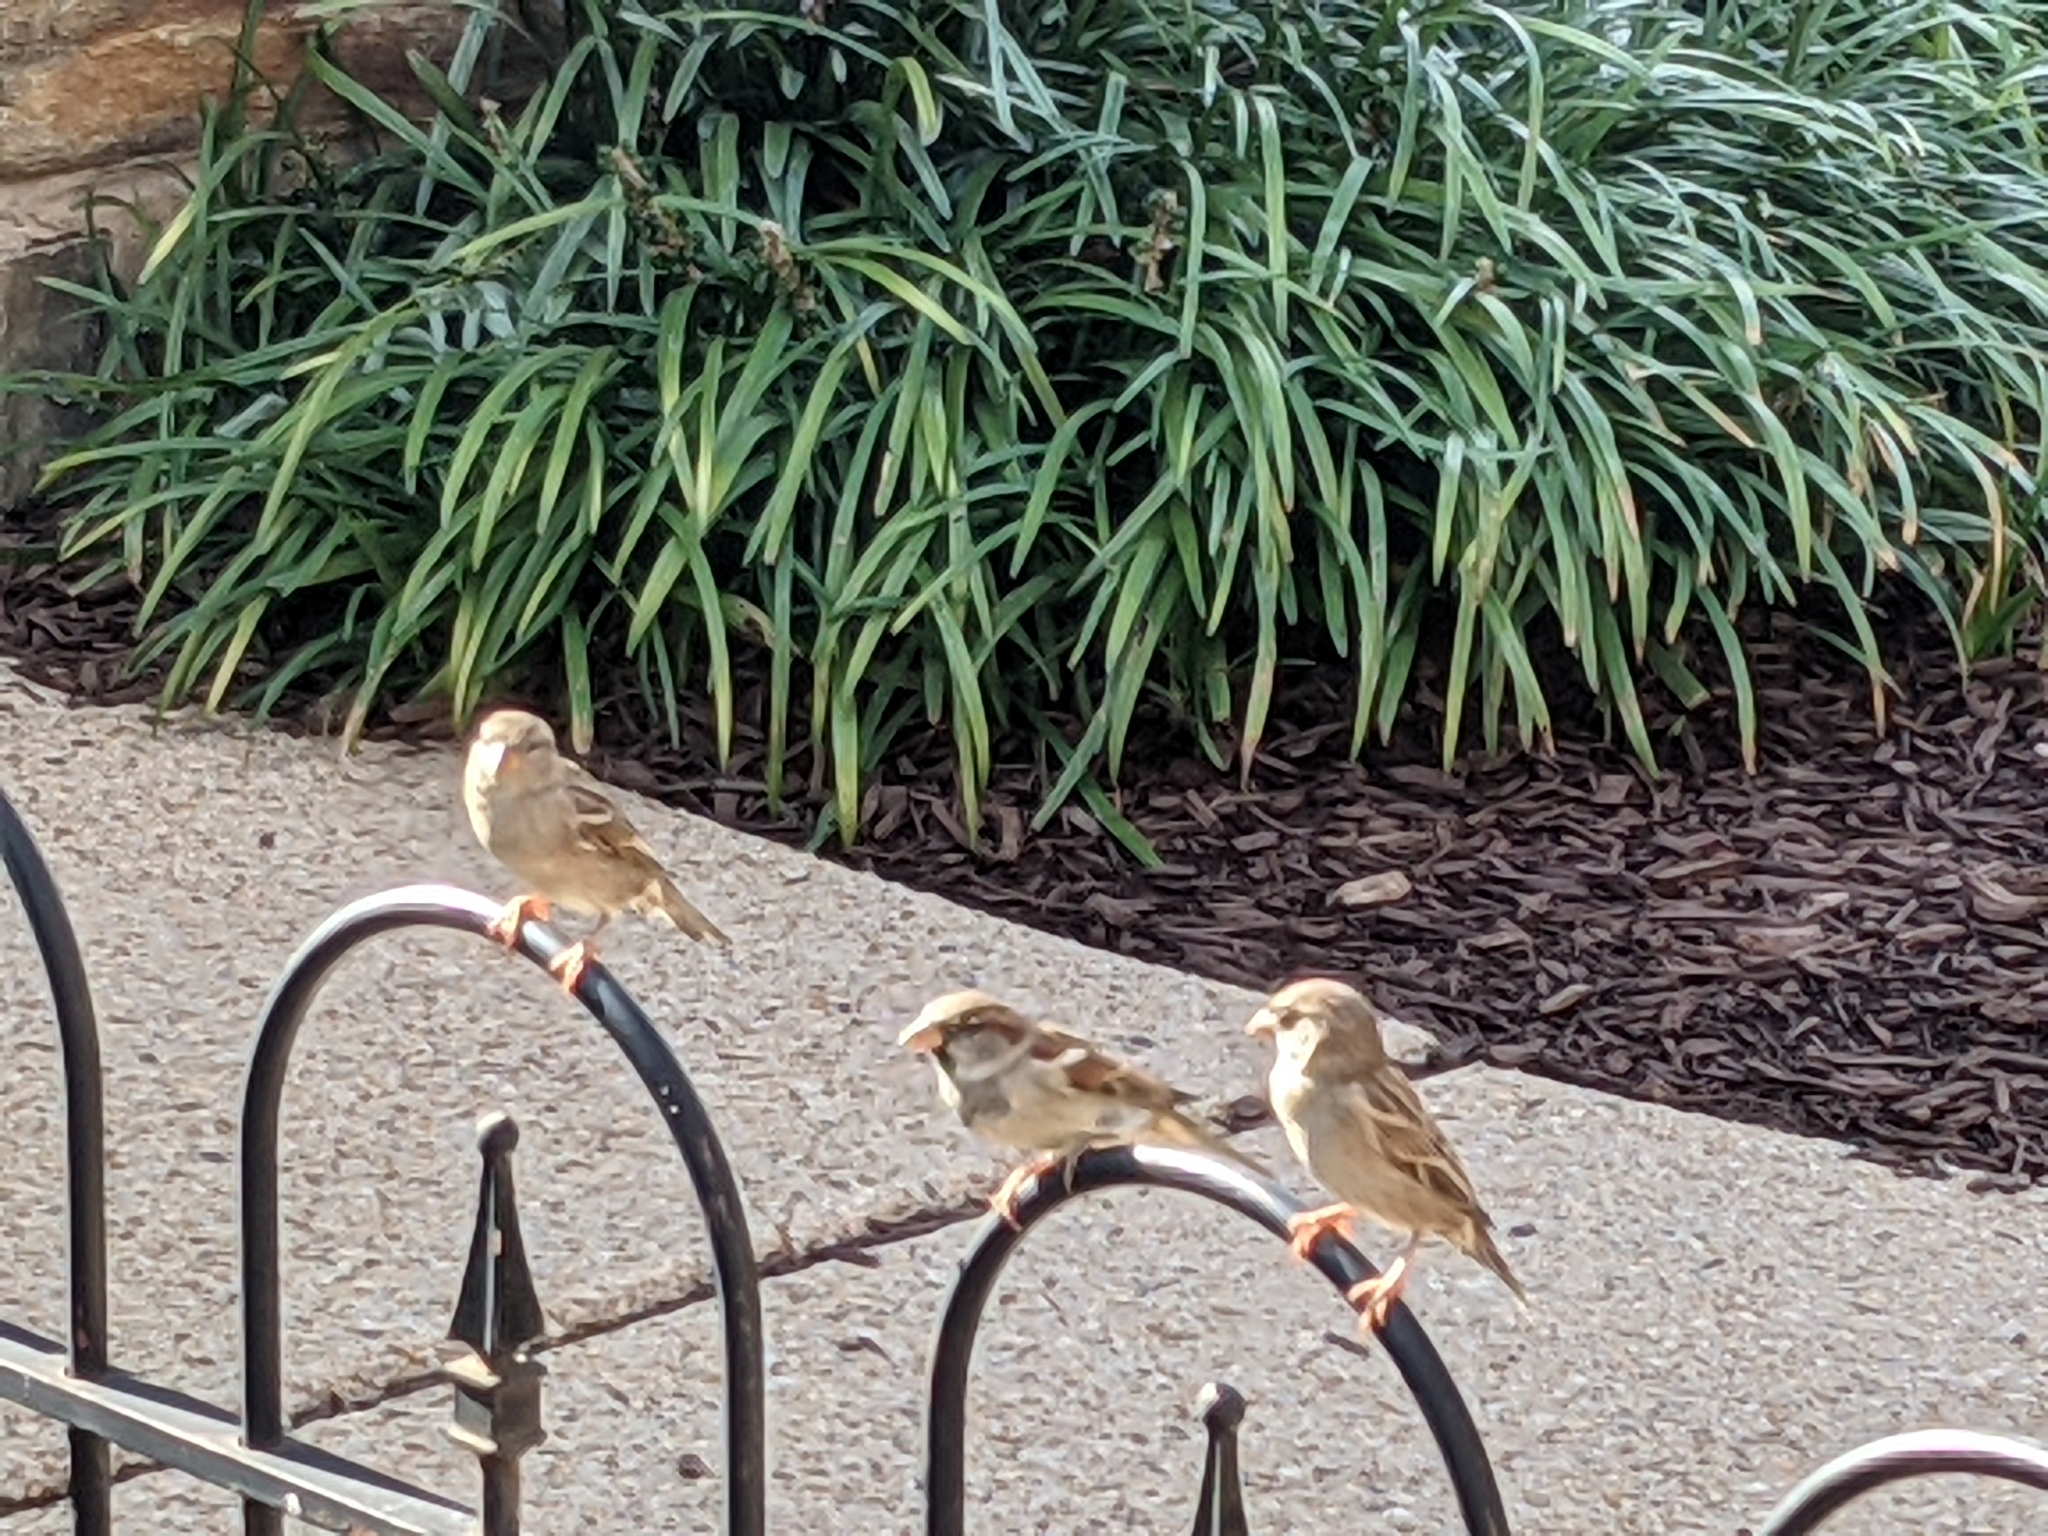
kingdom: Animalia
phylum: Chordata
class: Aves
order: Passeriformes
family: Passeridae
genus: Passer
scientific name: Passer domesticus
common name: House sparrow
